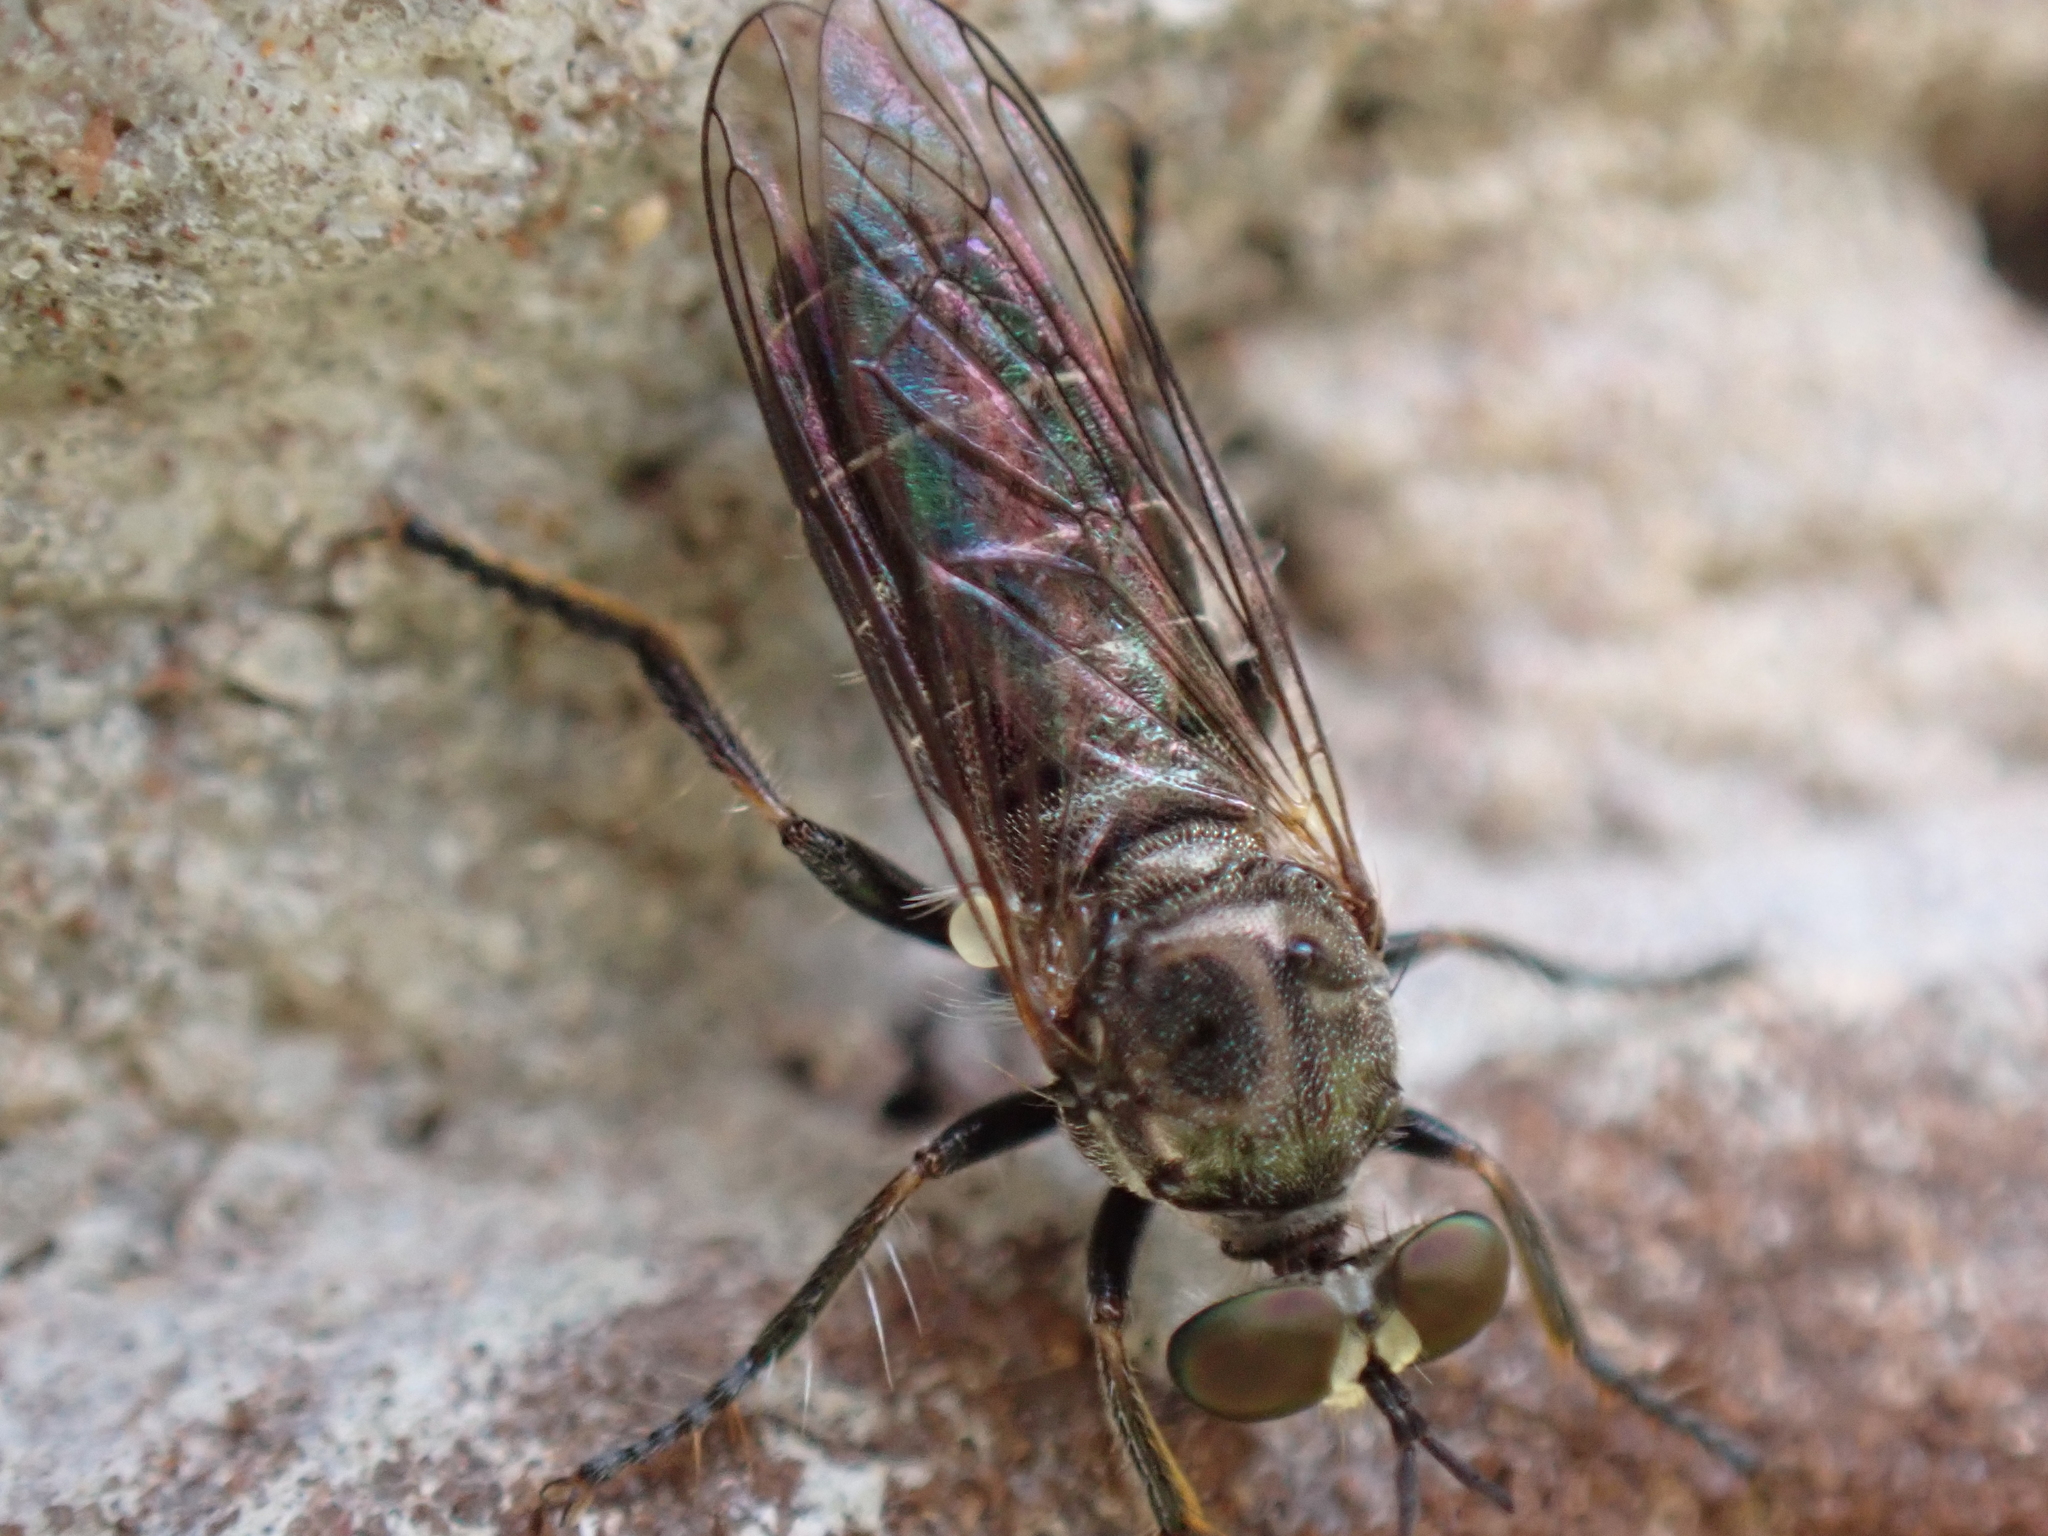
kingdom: Animalia
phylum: Arthropoda
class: Insecta
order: Diptera
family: Asilidae
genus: Atomosia
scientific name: Atomosia puella
